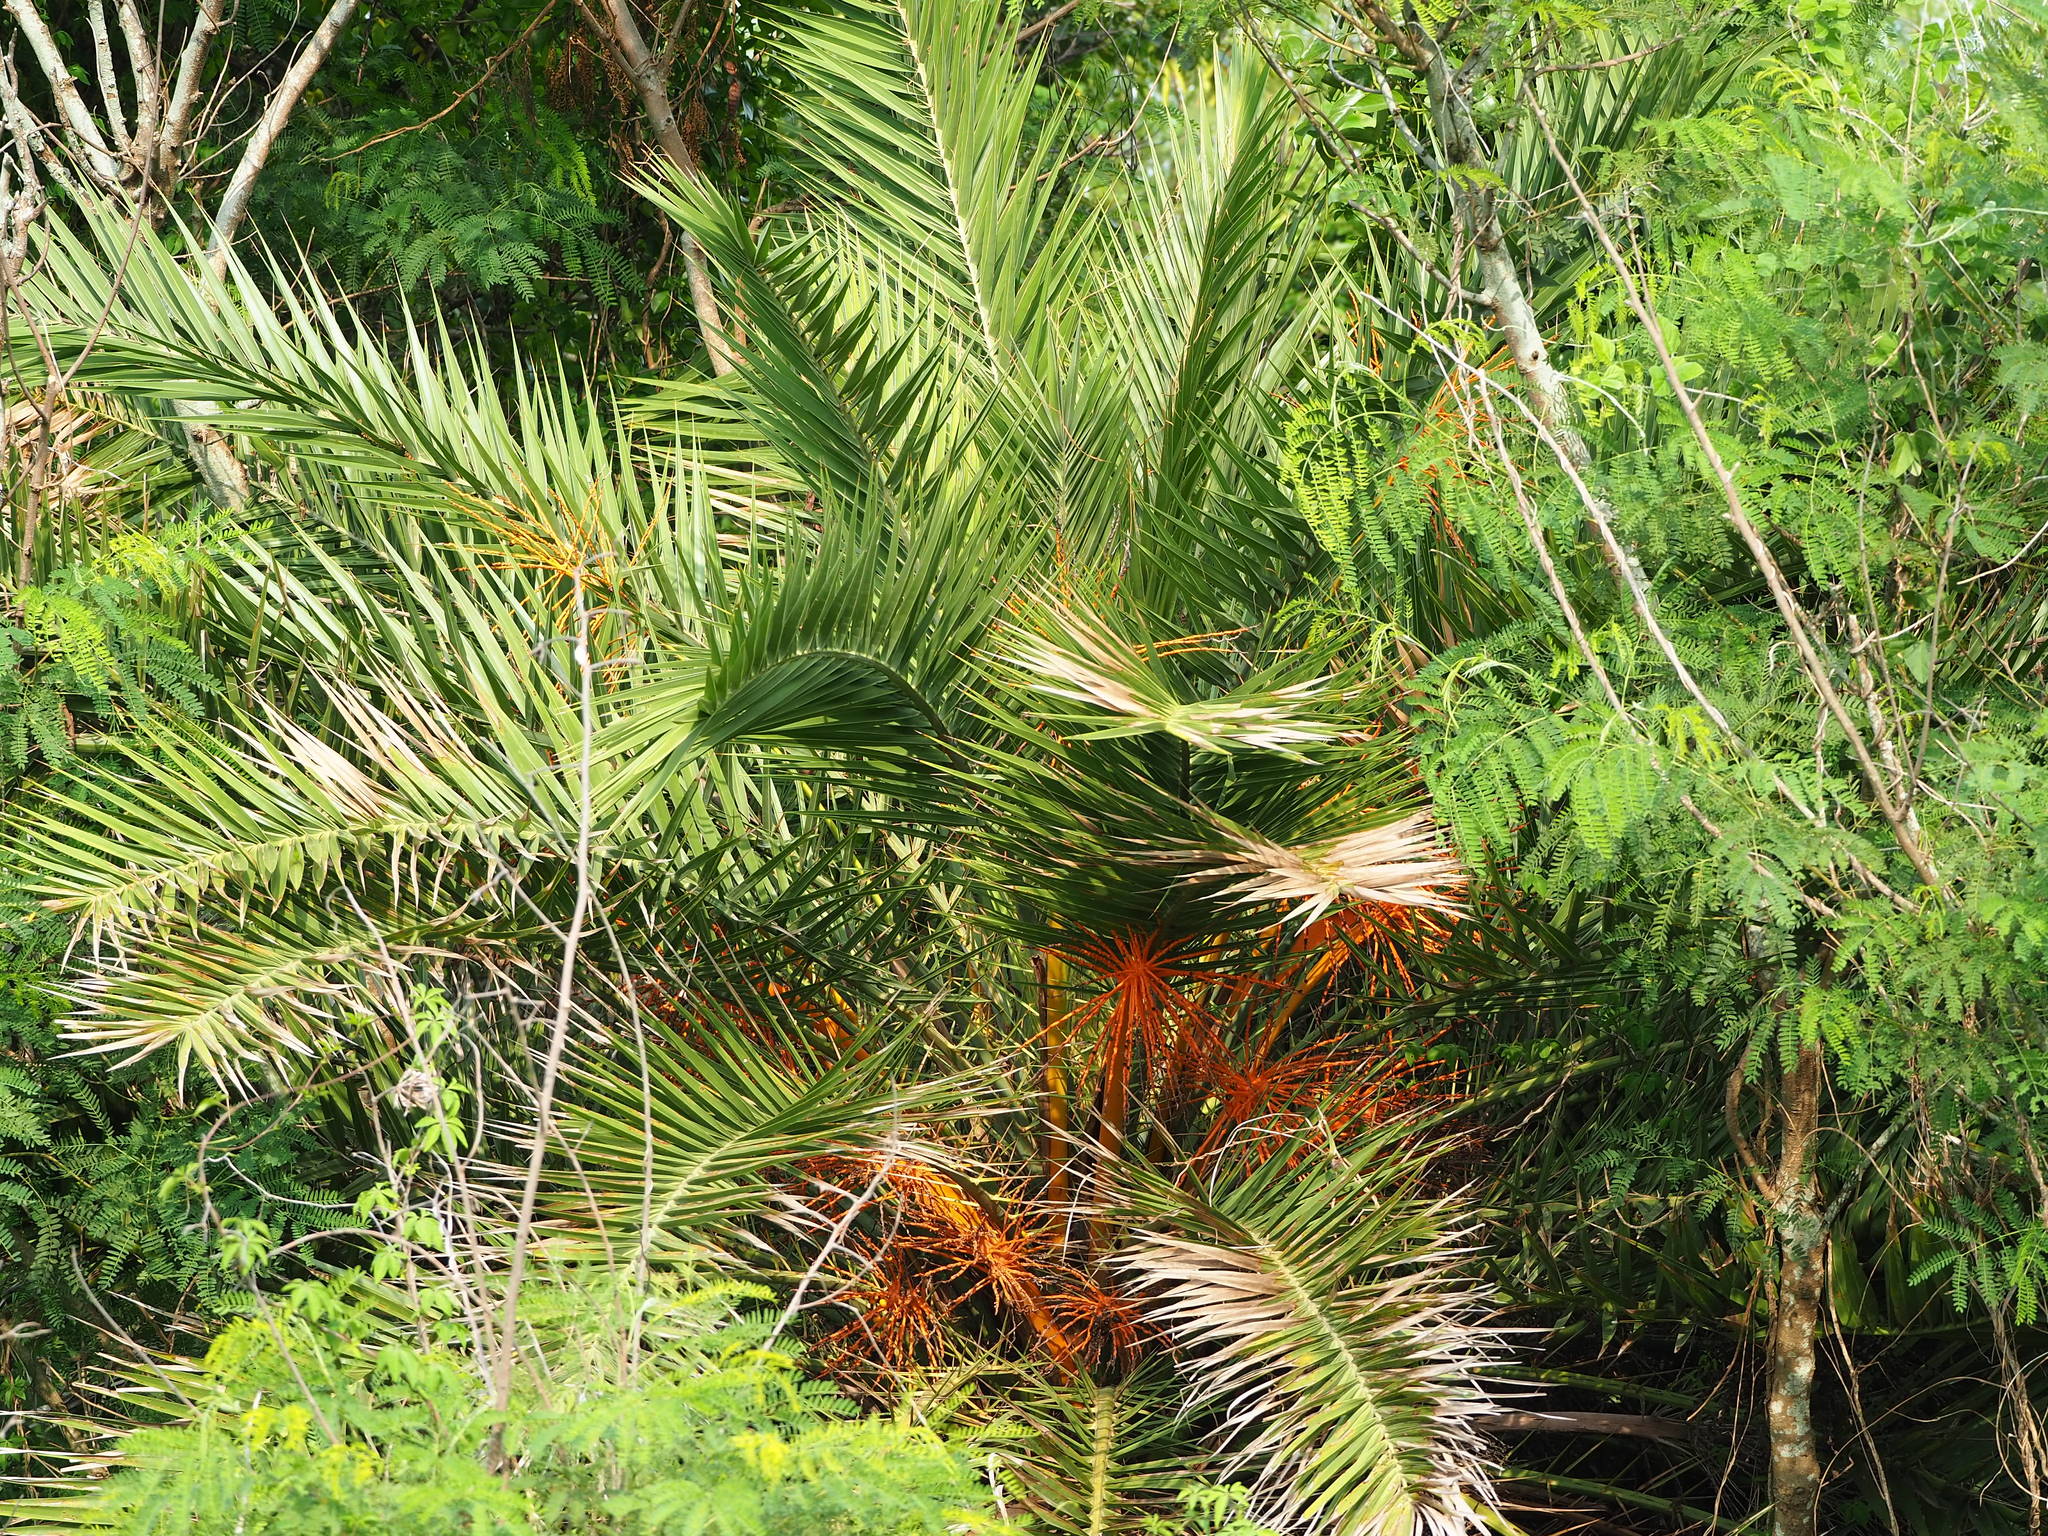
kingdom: Plantae
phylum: Tracheophyta
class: Liliopsida
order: Arecales
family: Arecaceae
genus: Phoenix
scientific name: Phoenix loureiroi
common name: Loureiro's palm
